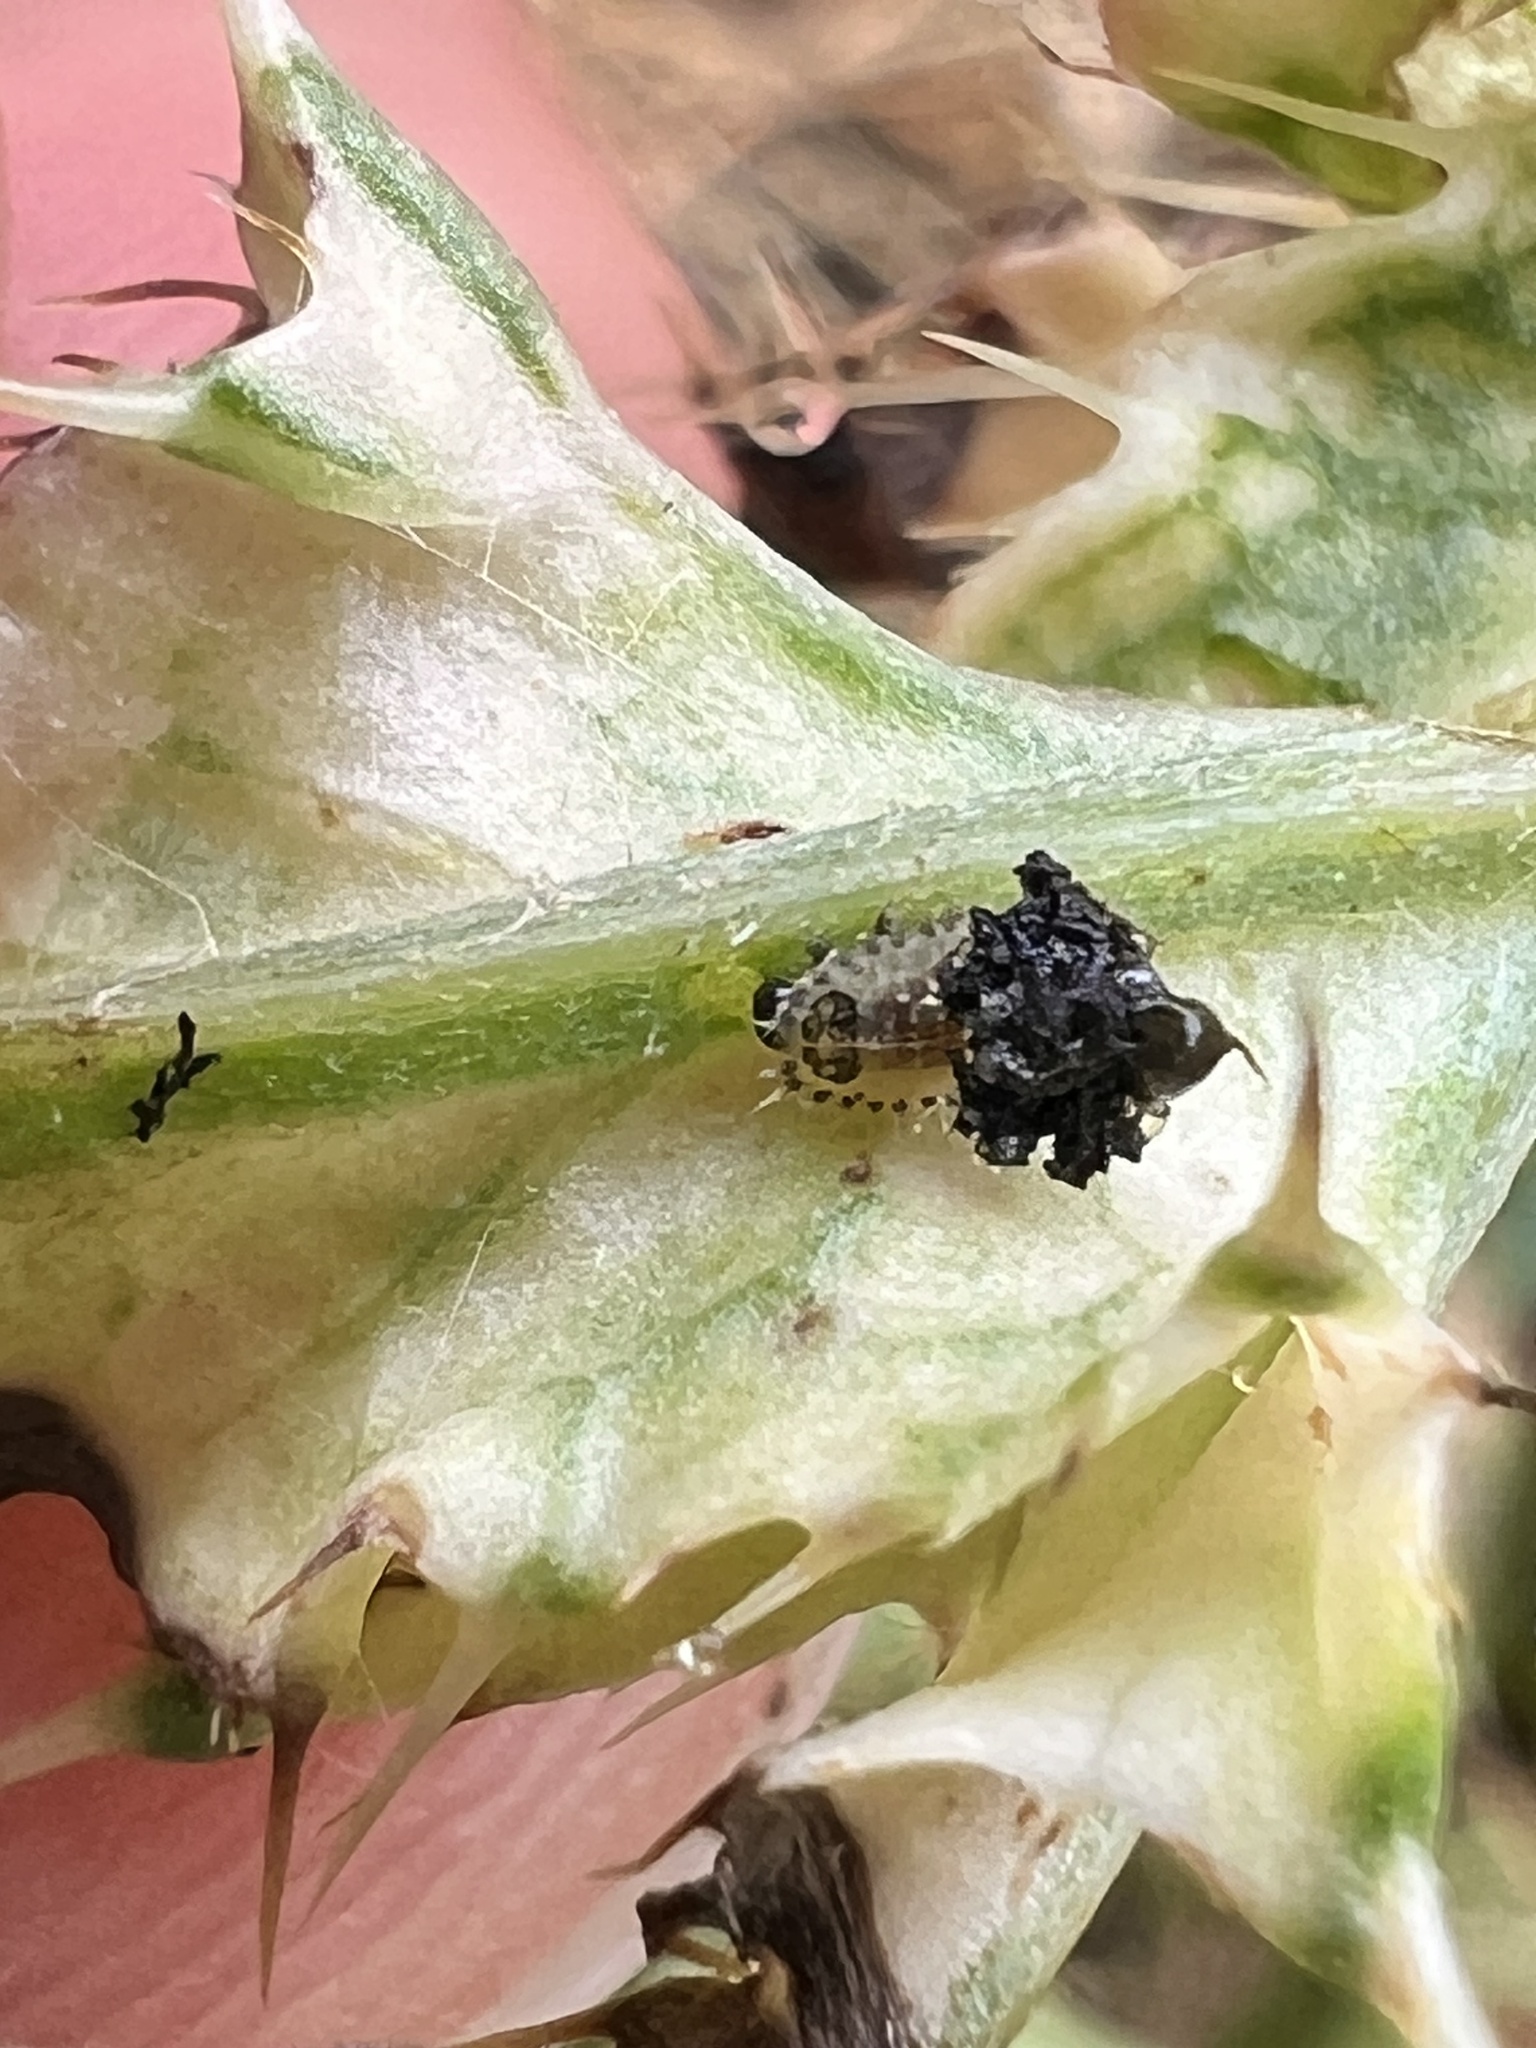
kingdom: Animalia
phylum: Arthropoda
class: Insecta
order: Coleoptera
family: Chrysomelidae
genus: Cassida
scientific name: Cassida rubiginosa
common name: Thistle tortoise beetle
